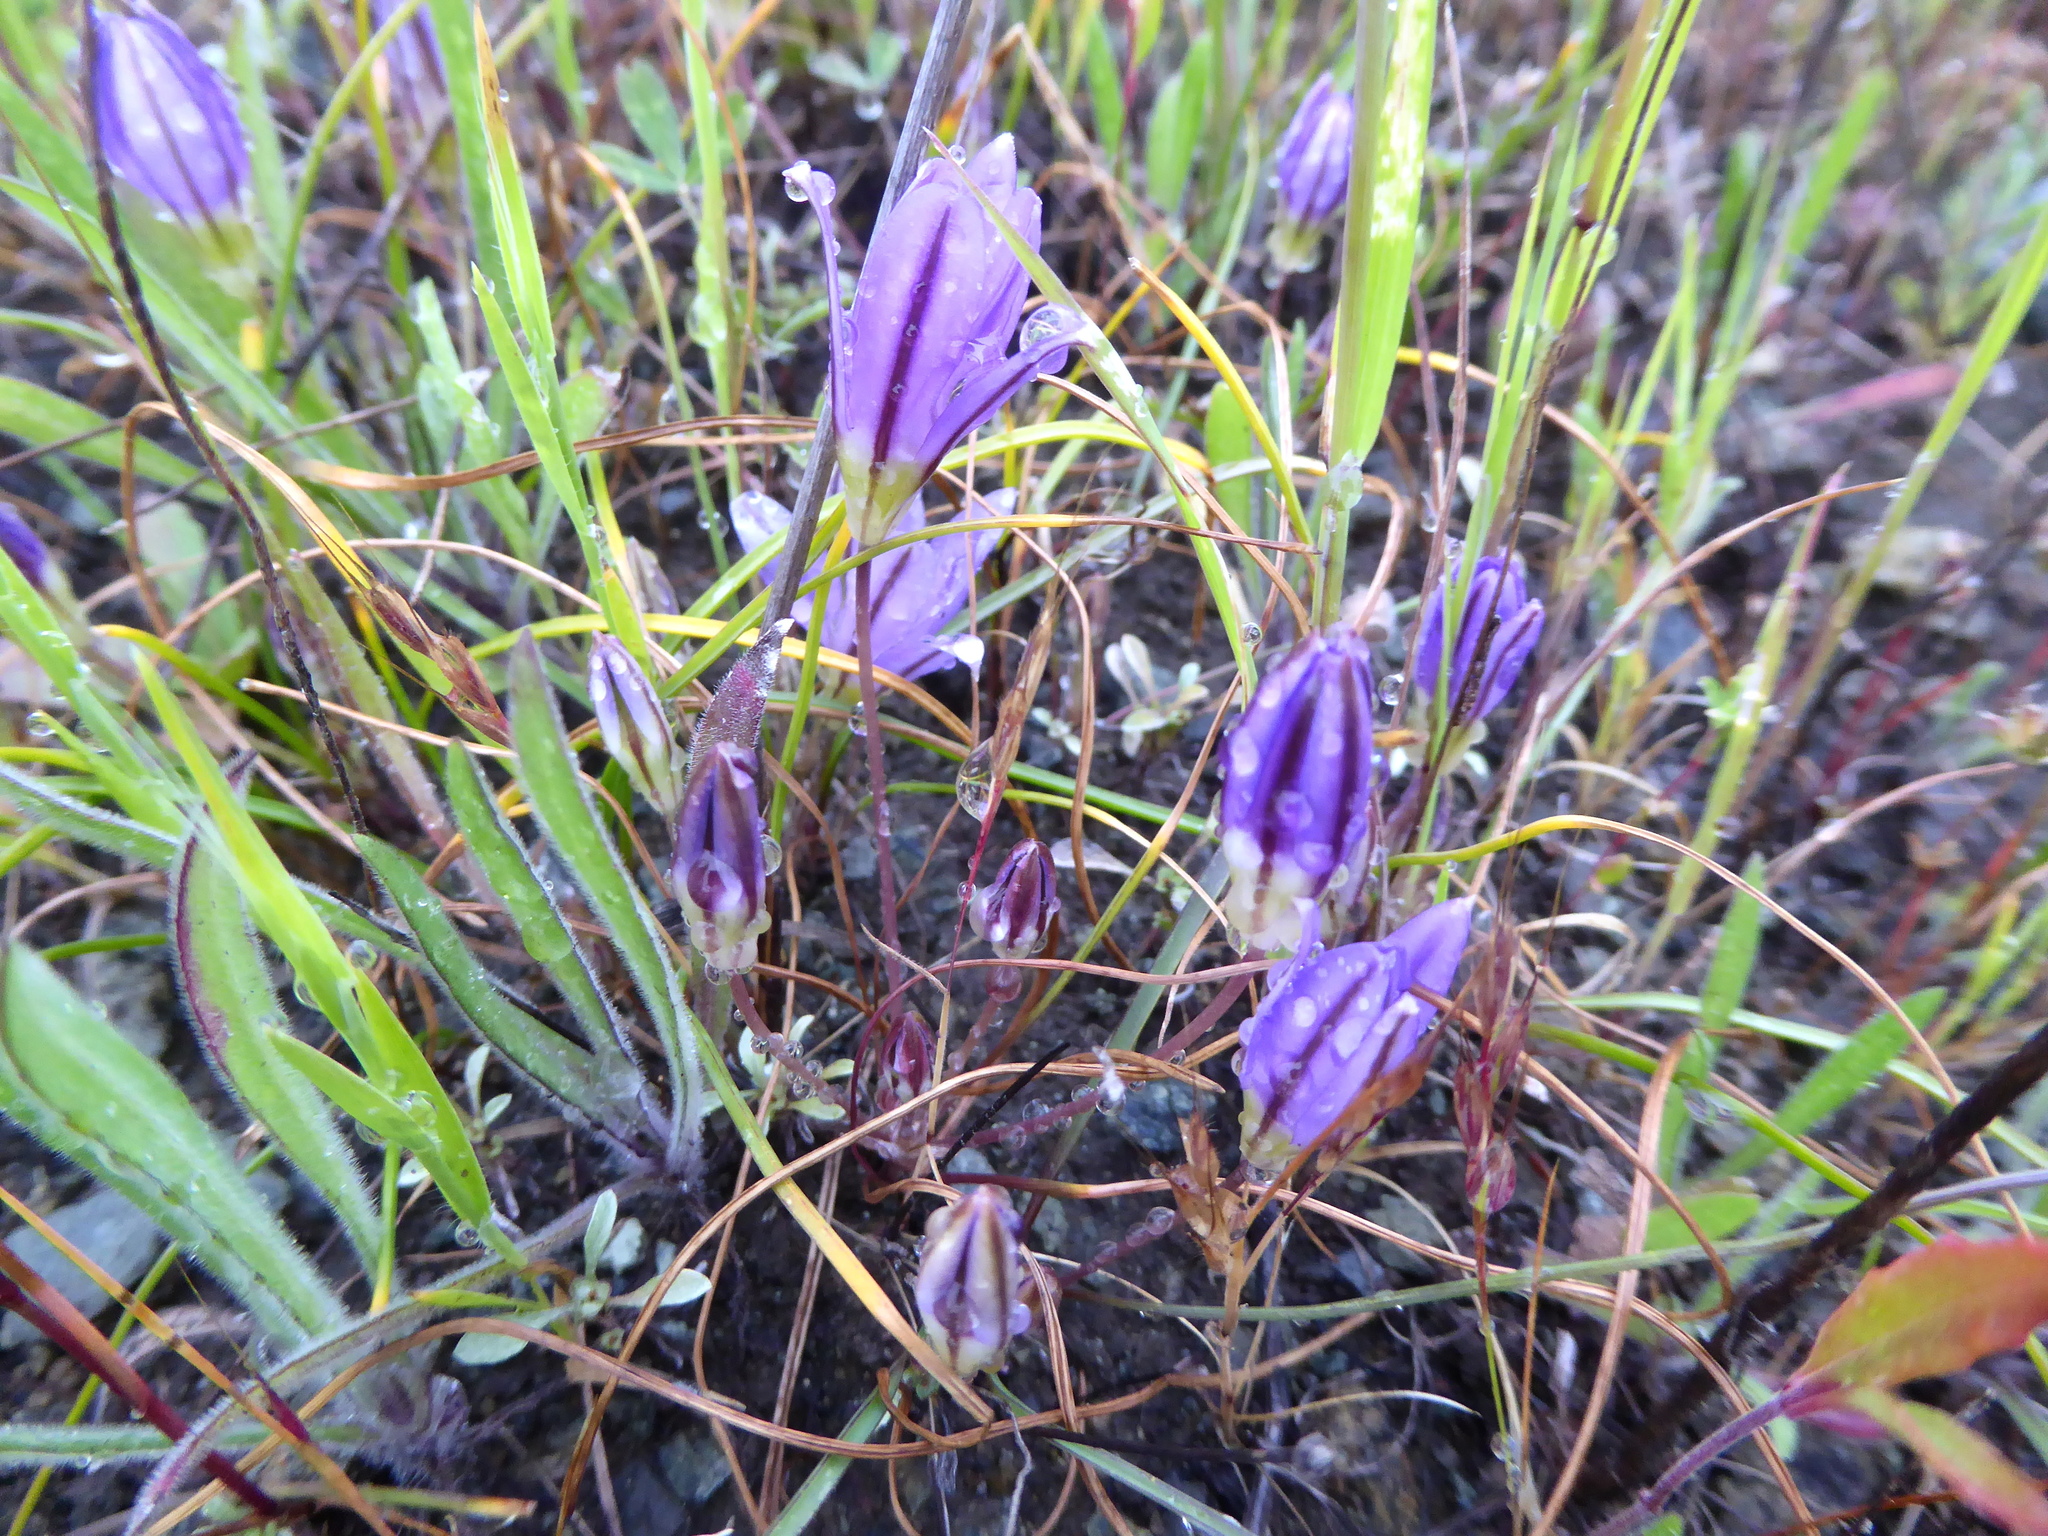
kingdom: Plantae
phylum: Tracheophyta
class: Liliopsida
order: Asparagales
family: Asparagaceae
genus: Brodiaea
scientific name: Brodiaea terrestris
